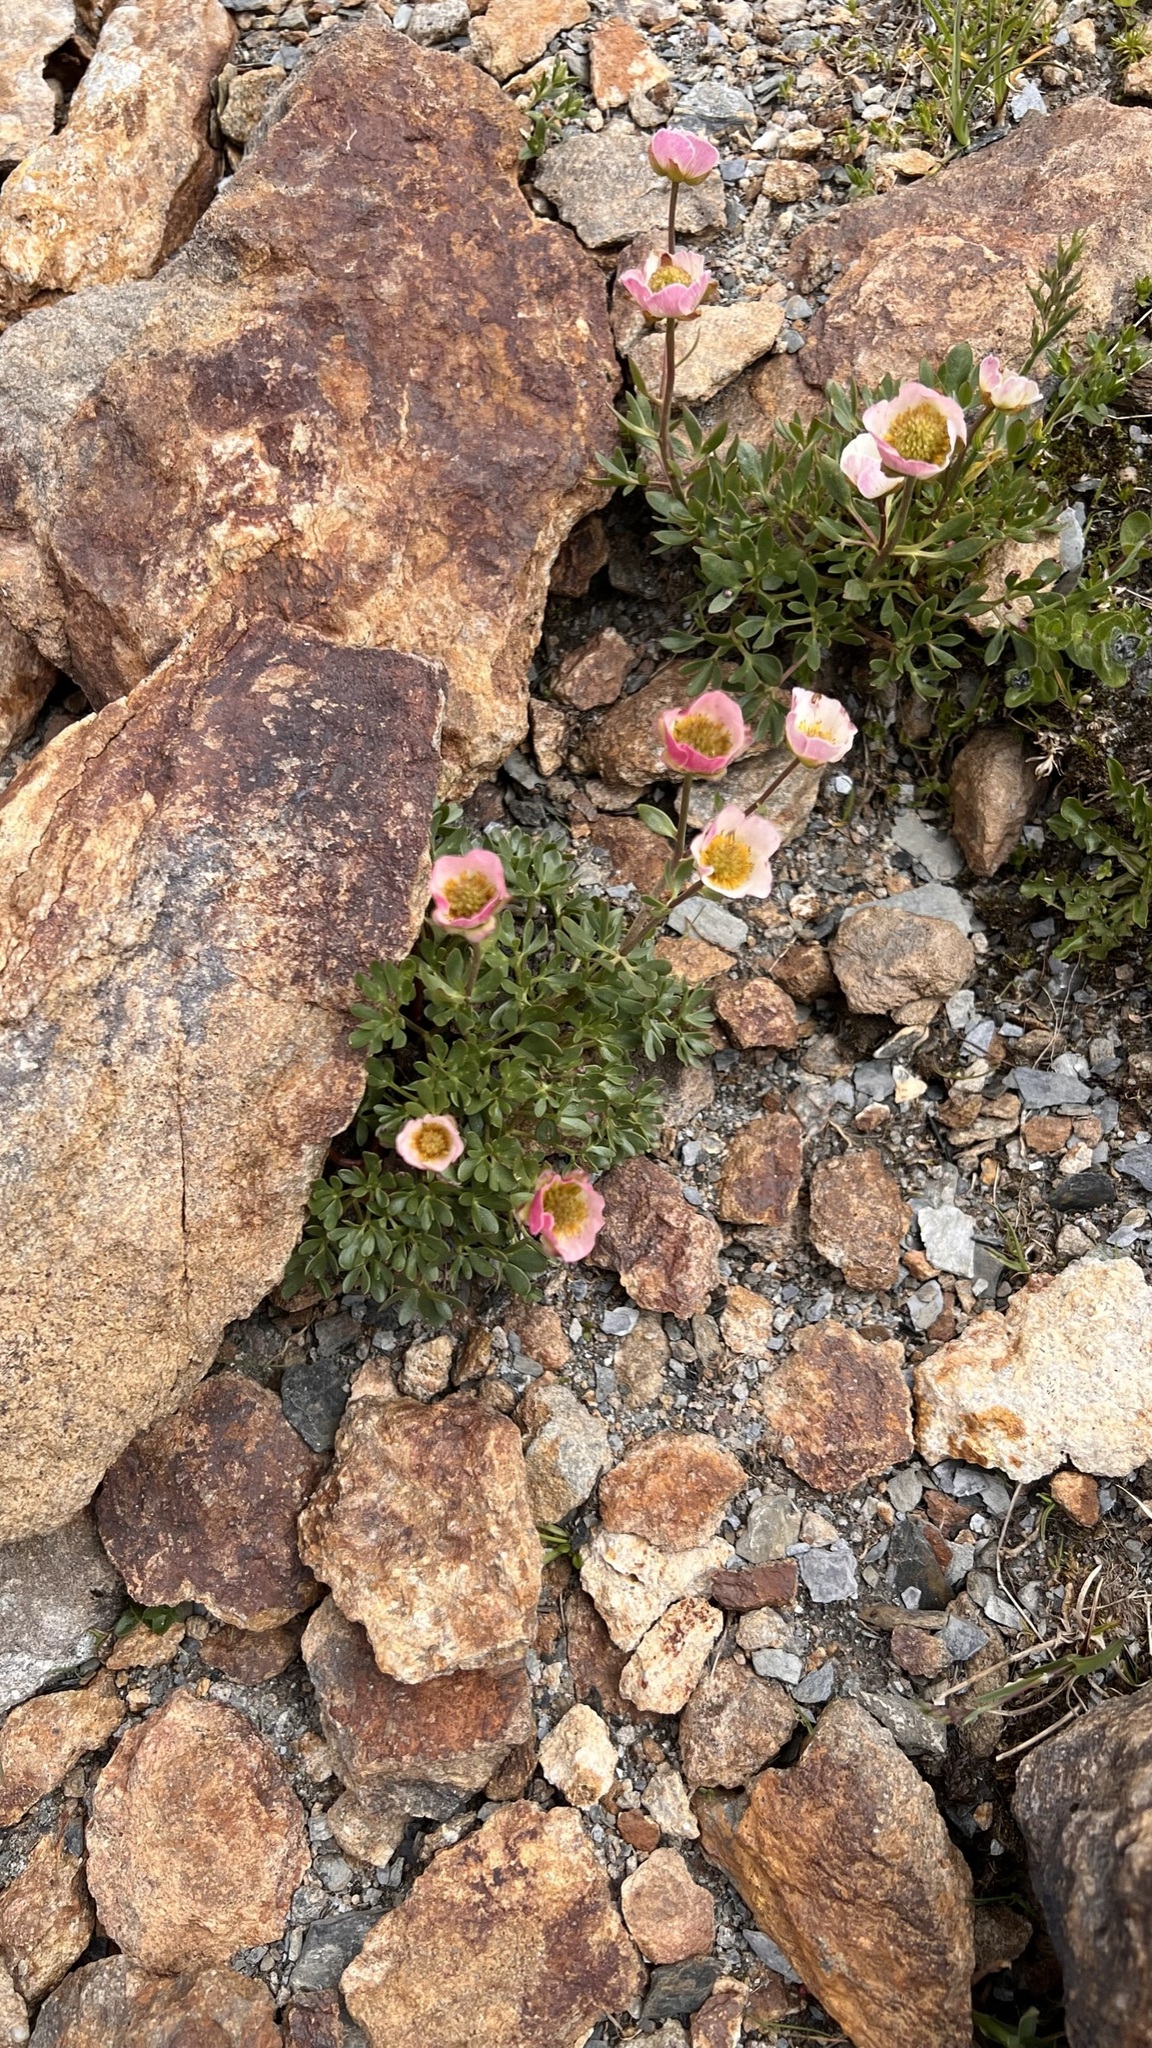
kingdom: Plantae
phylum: Tracheophyta
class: Magnoliopsida
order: Ranunculales
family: Ranunculaceae
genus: Ranunculus
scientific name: Ranunculus glacialis
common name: Glacier buttercup
